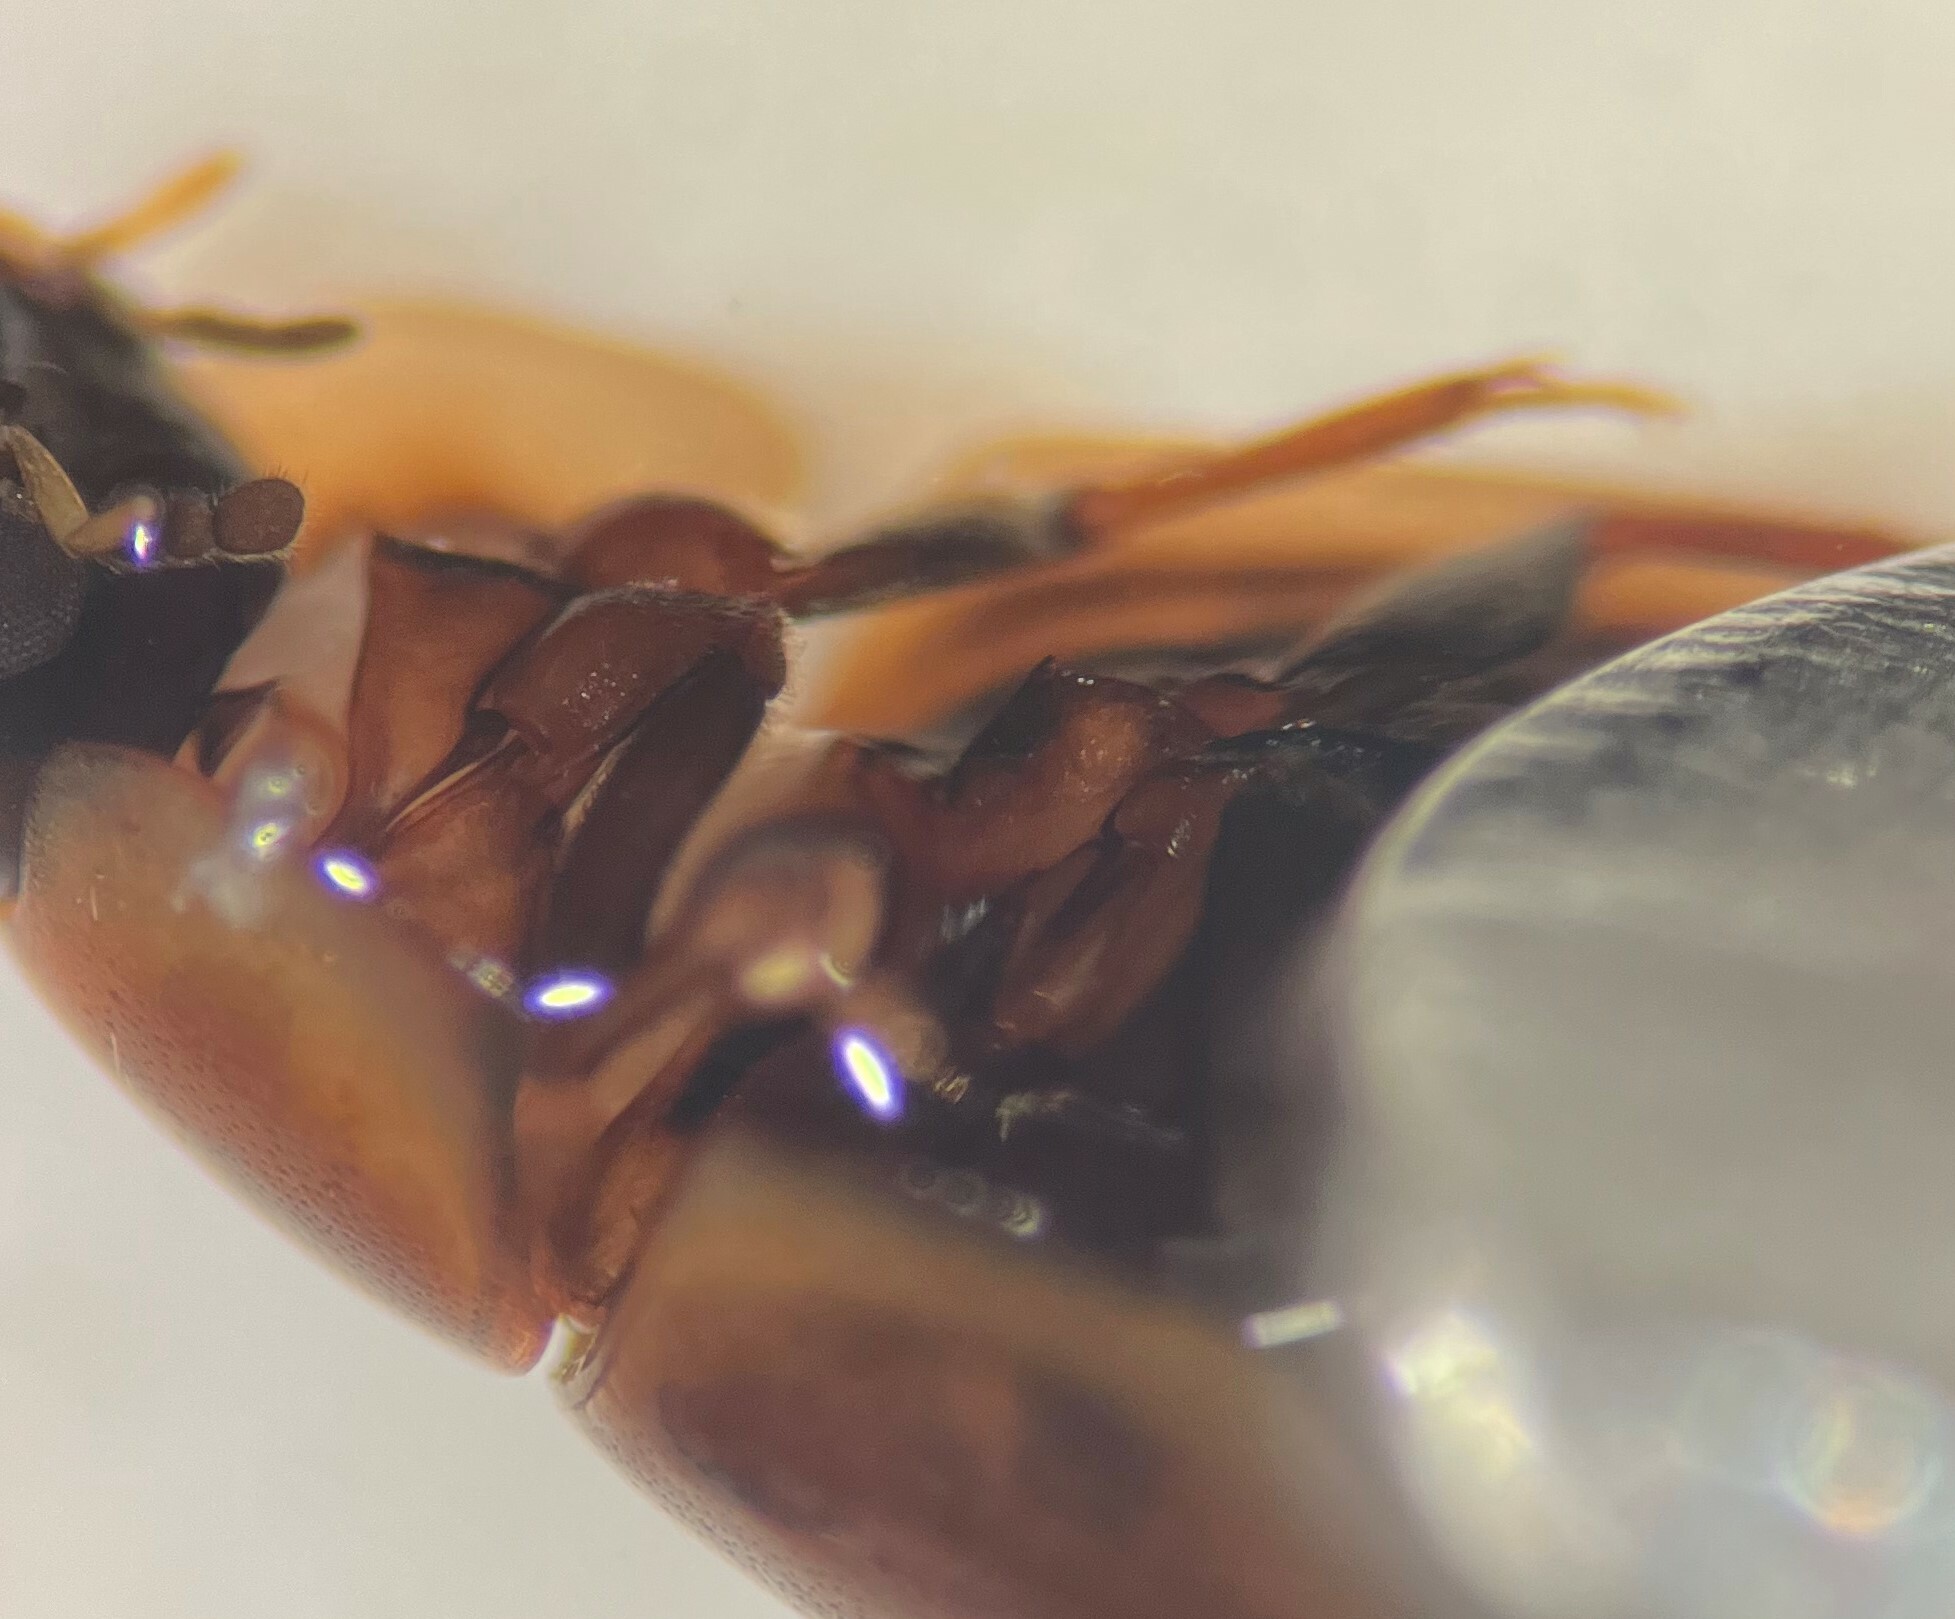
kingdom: Animalia
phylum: Arthropoda
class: Insecta
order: Coleoptera
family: Hydrophilidae
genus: Enochrus
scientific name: Enochrus sayi
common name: Water scavenger beetle
